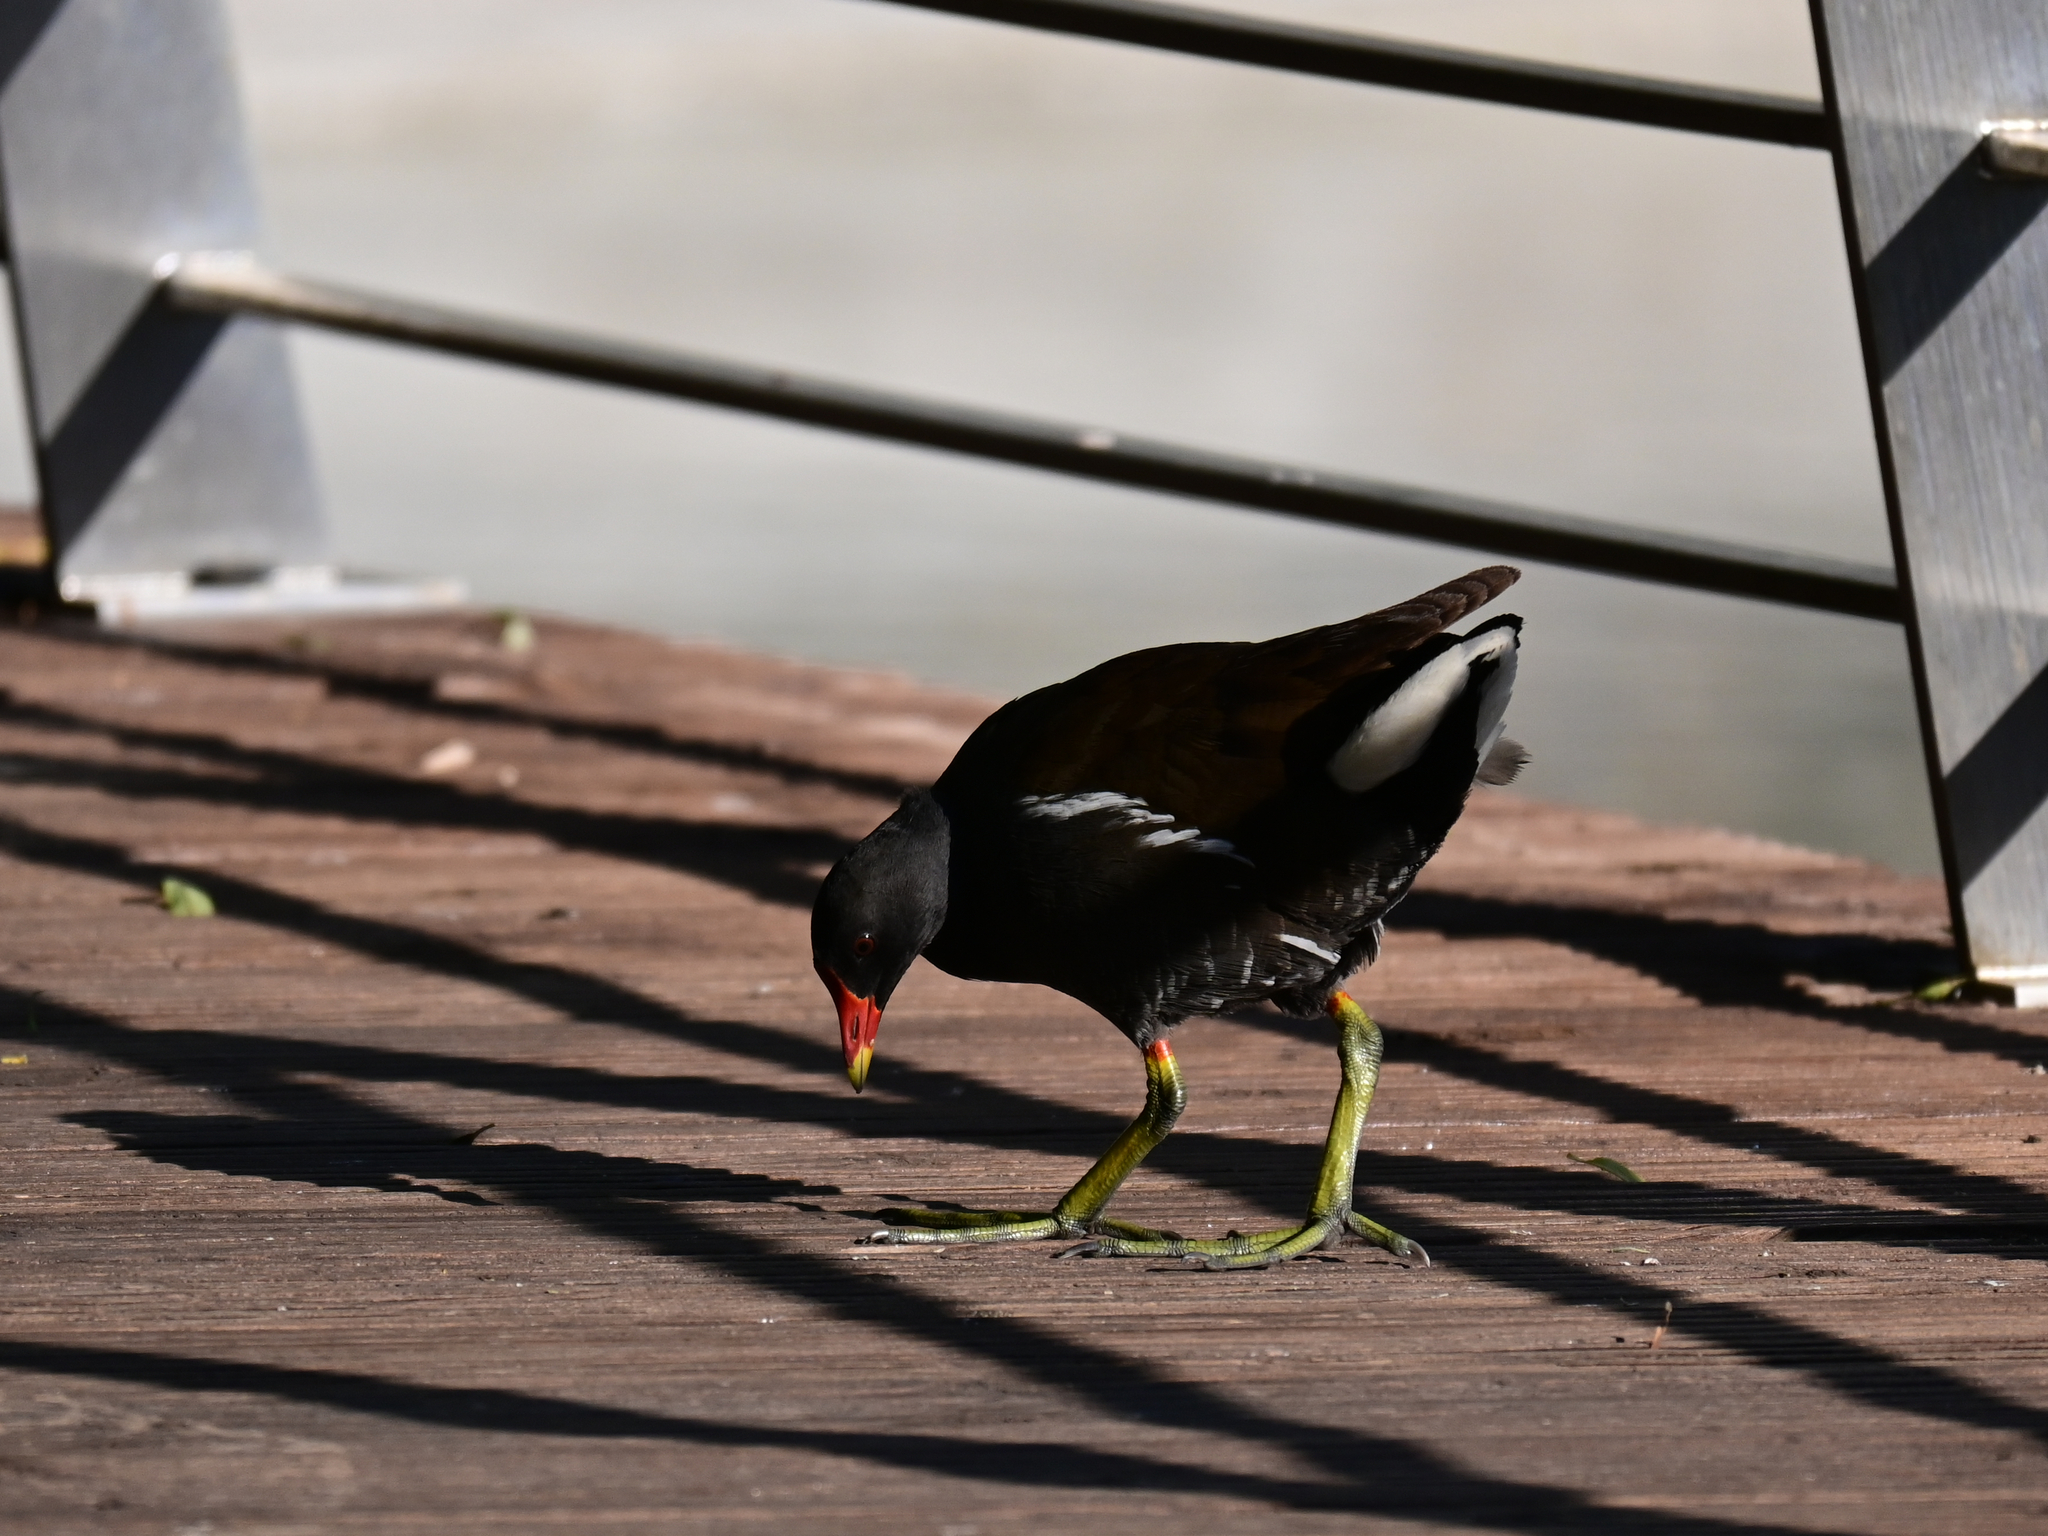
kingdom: Animalia
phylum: Chordata
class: Aves
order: Gruiformes
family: Rallidae
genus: Gallinula
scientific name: Gallinula chloropus
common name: Common moorhen
